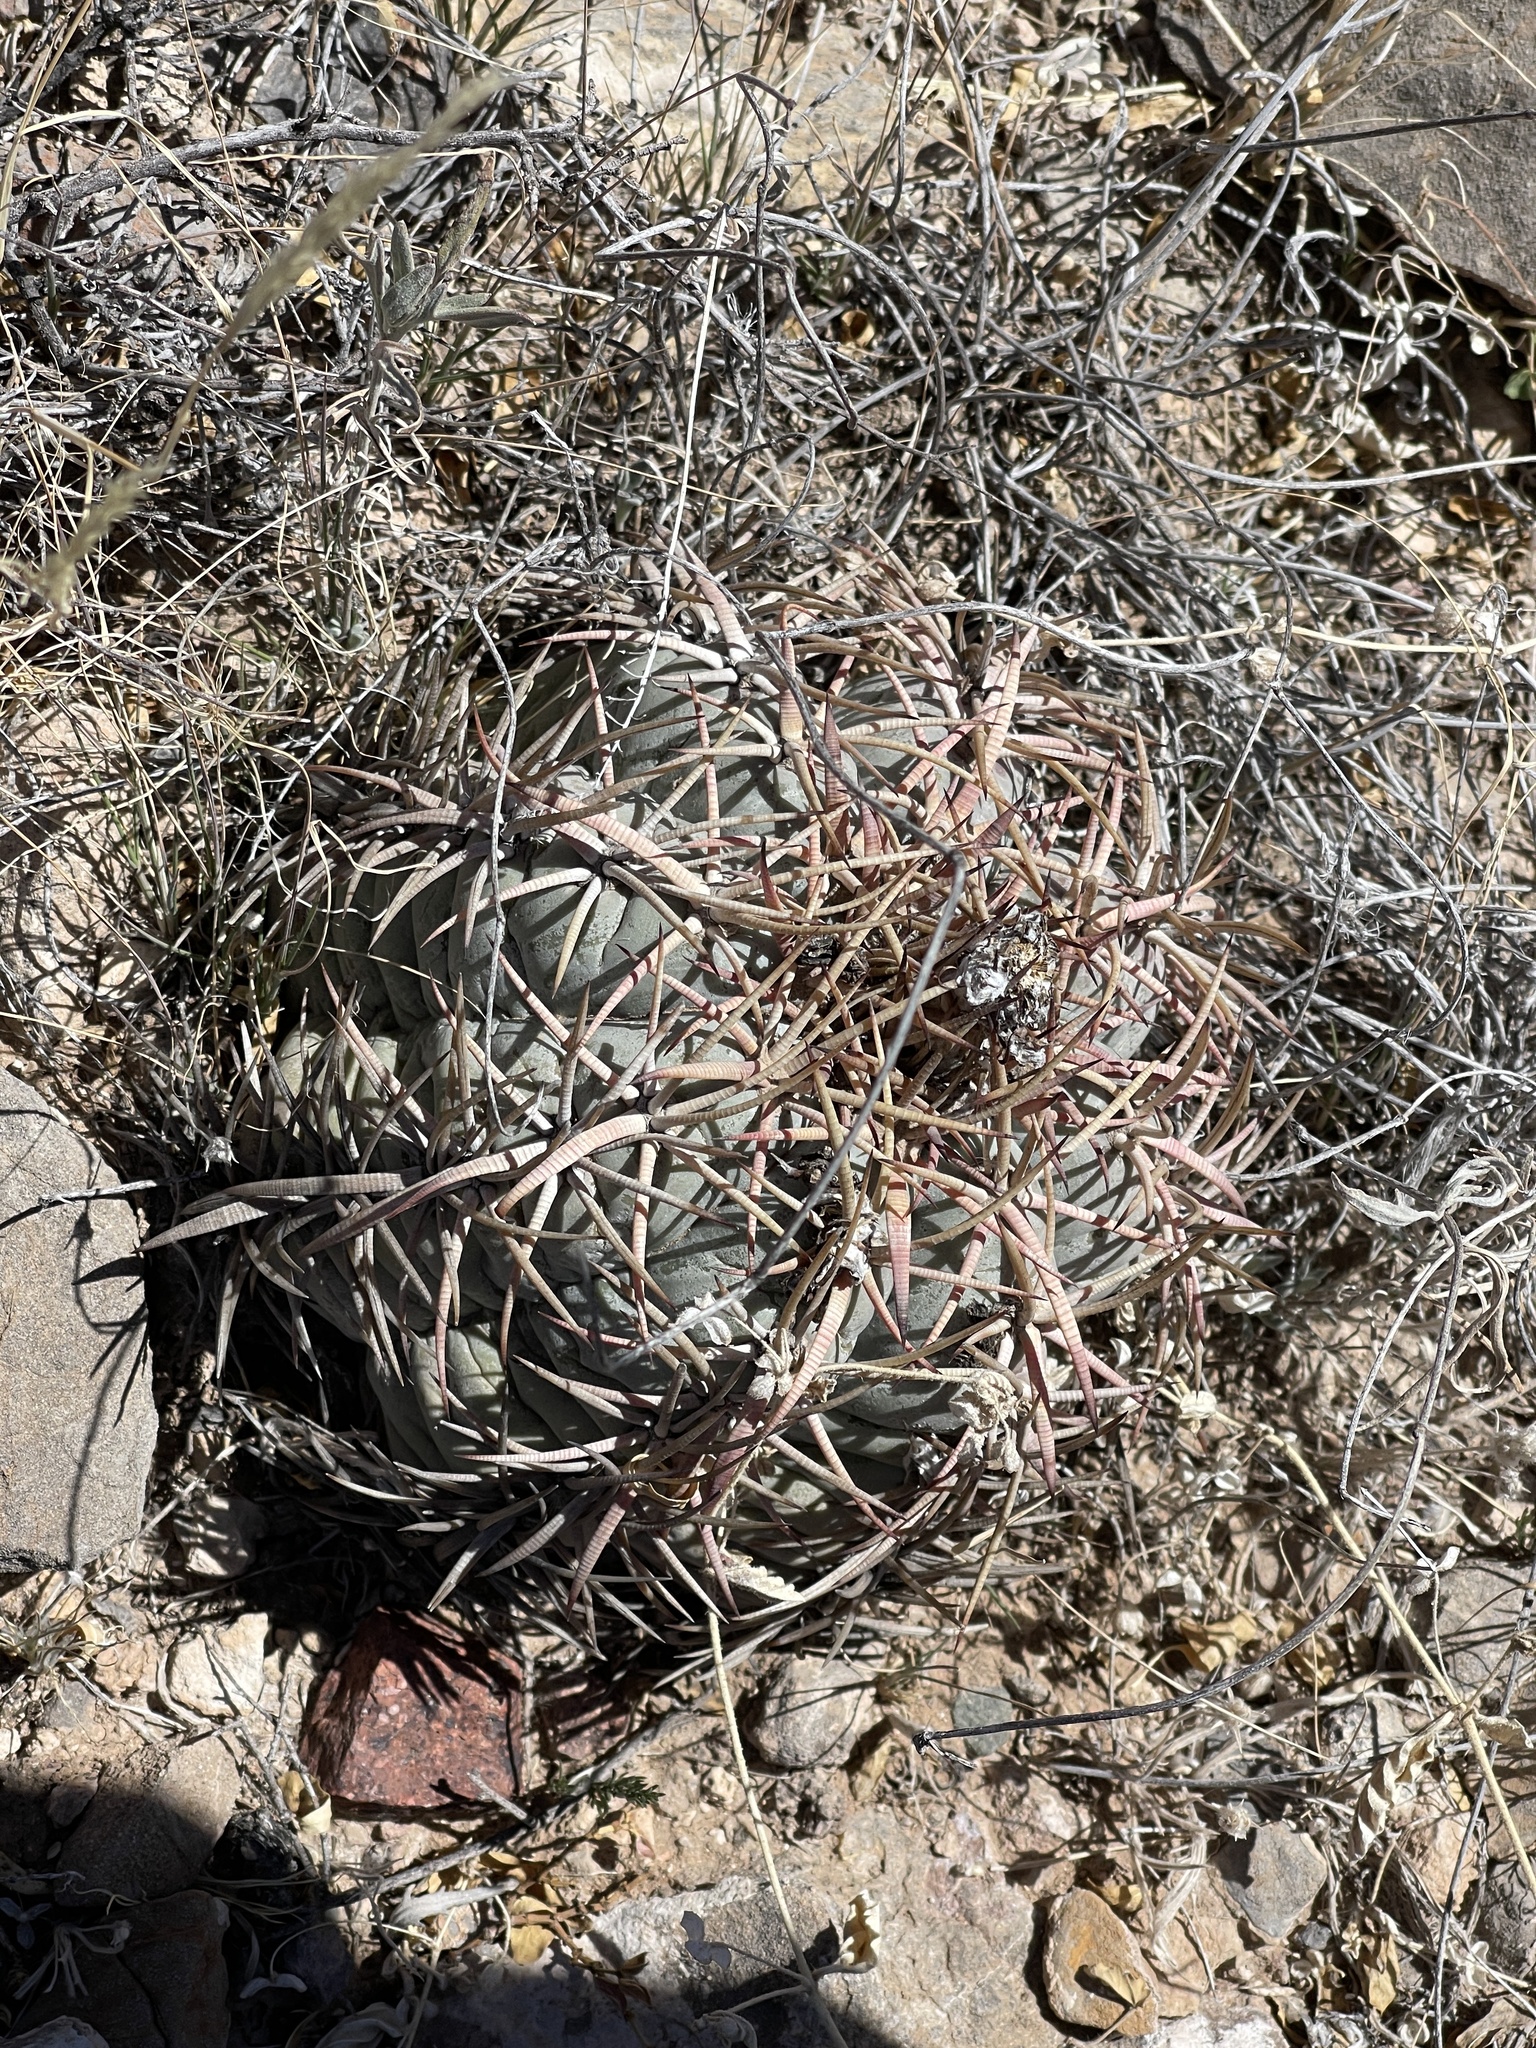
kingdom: Plantae
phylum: Tracheophyta
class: Magnoliopsida
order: Caryophyllales
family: Cactaceae
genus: Echinocactus
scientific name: Echinocactus horizonthalonius
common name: Devilshead
